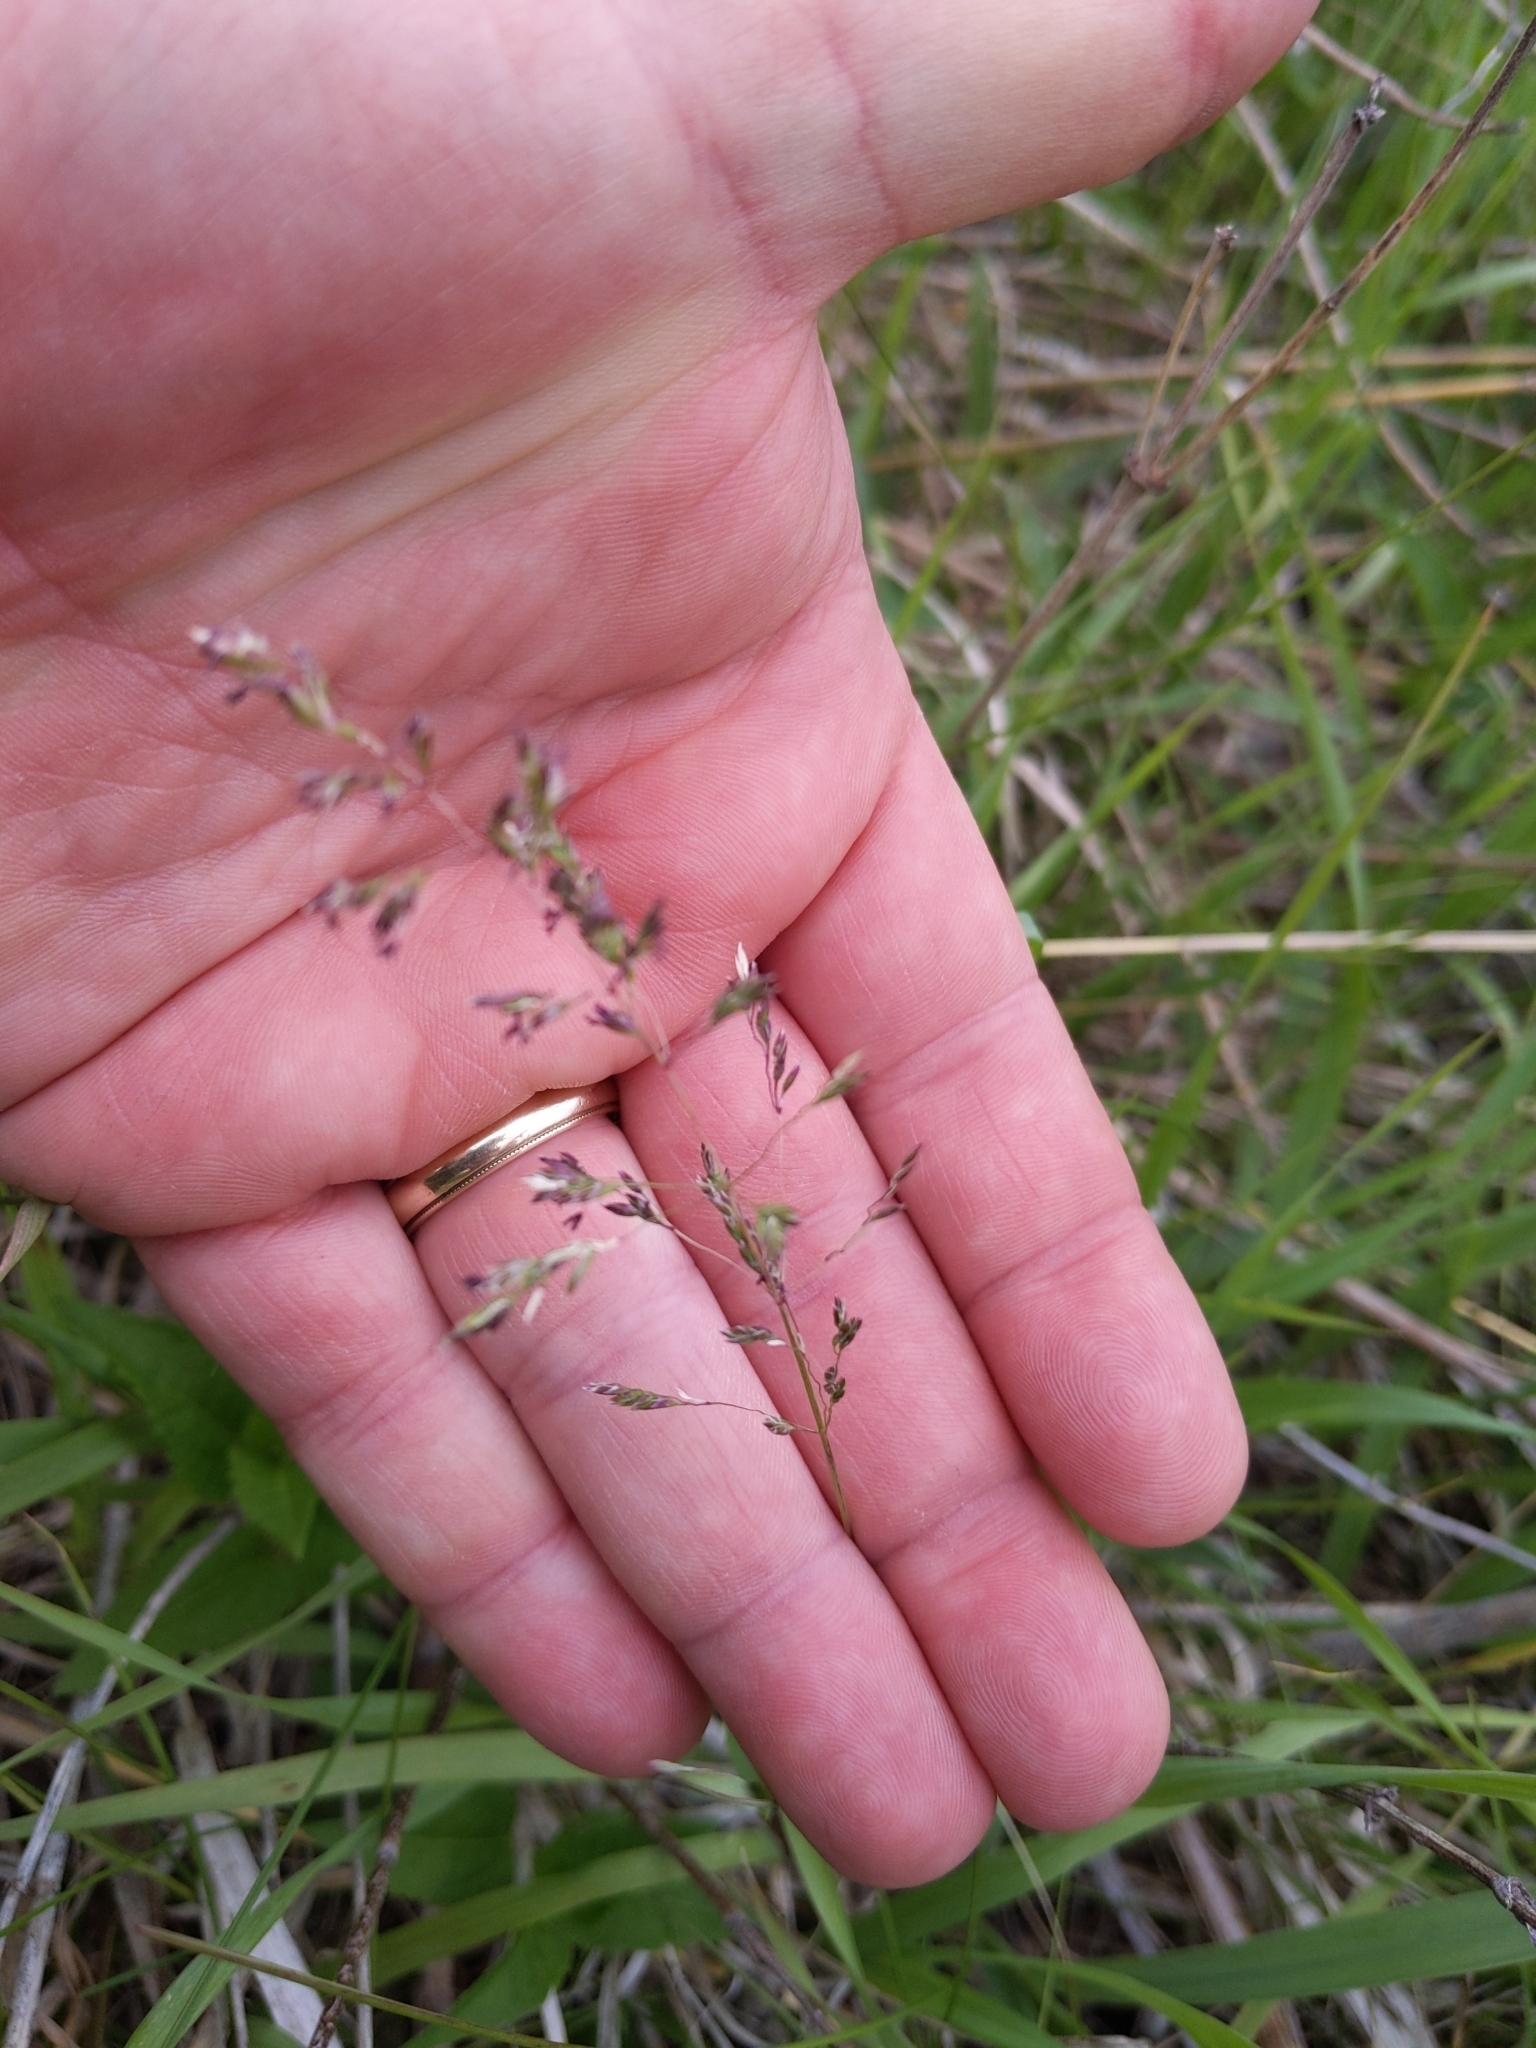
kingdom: Plantae
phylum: Tracheophyta
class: Liliopsida
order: Poales
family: Poaceae
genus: Poa
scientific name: Poa pratensis
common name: Kentucky bluegrass
